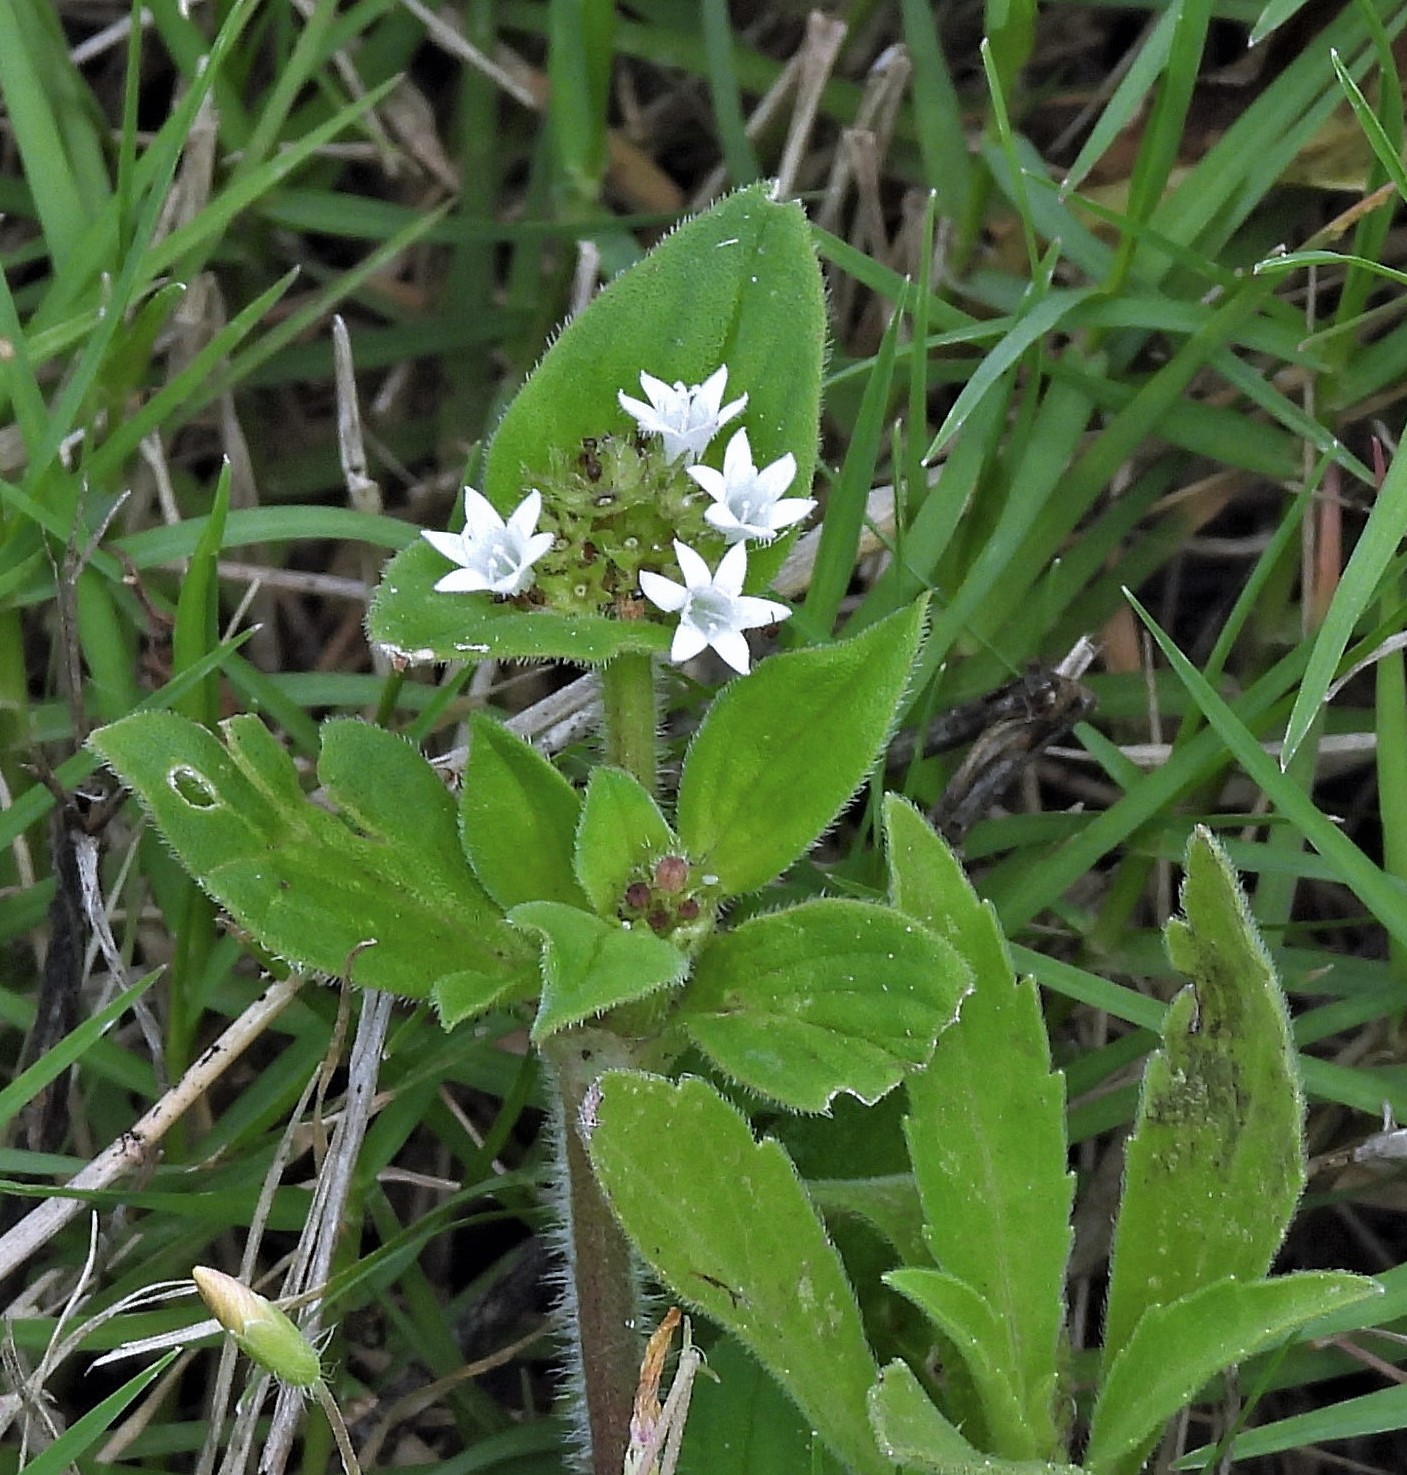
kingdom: Plantae
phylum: Tracheophyta
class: Magnoliopsida
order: Gentianales
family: Rubiaceae
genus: Richardia
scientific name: Richardia brasiliensis
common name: Tropical mexican clover
